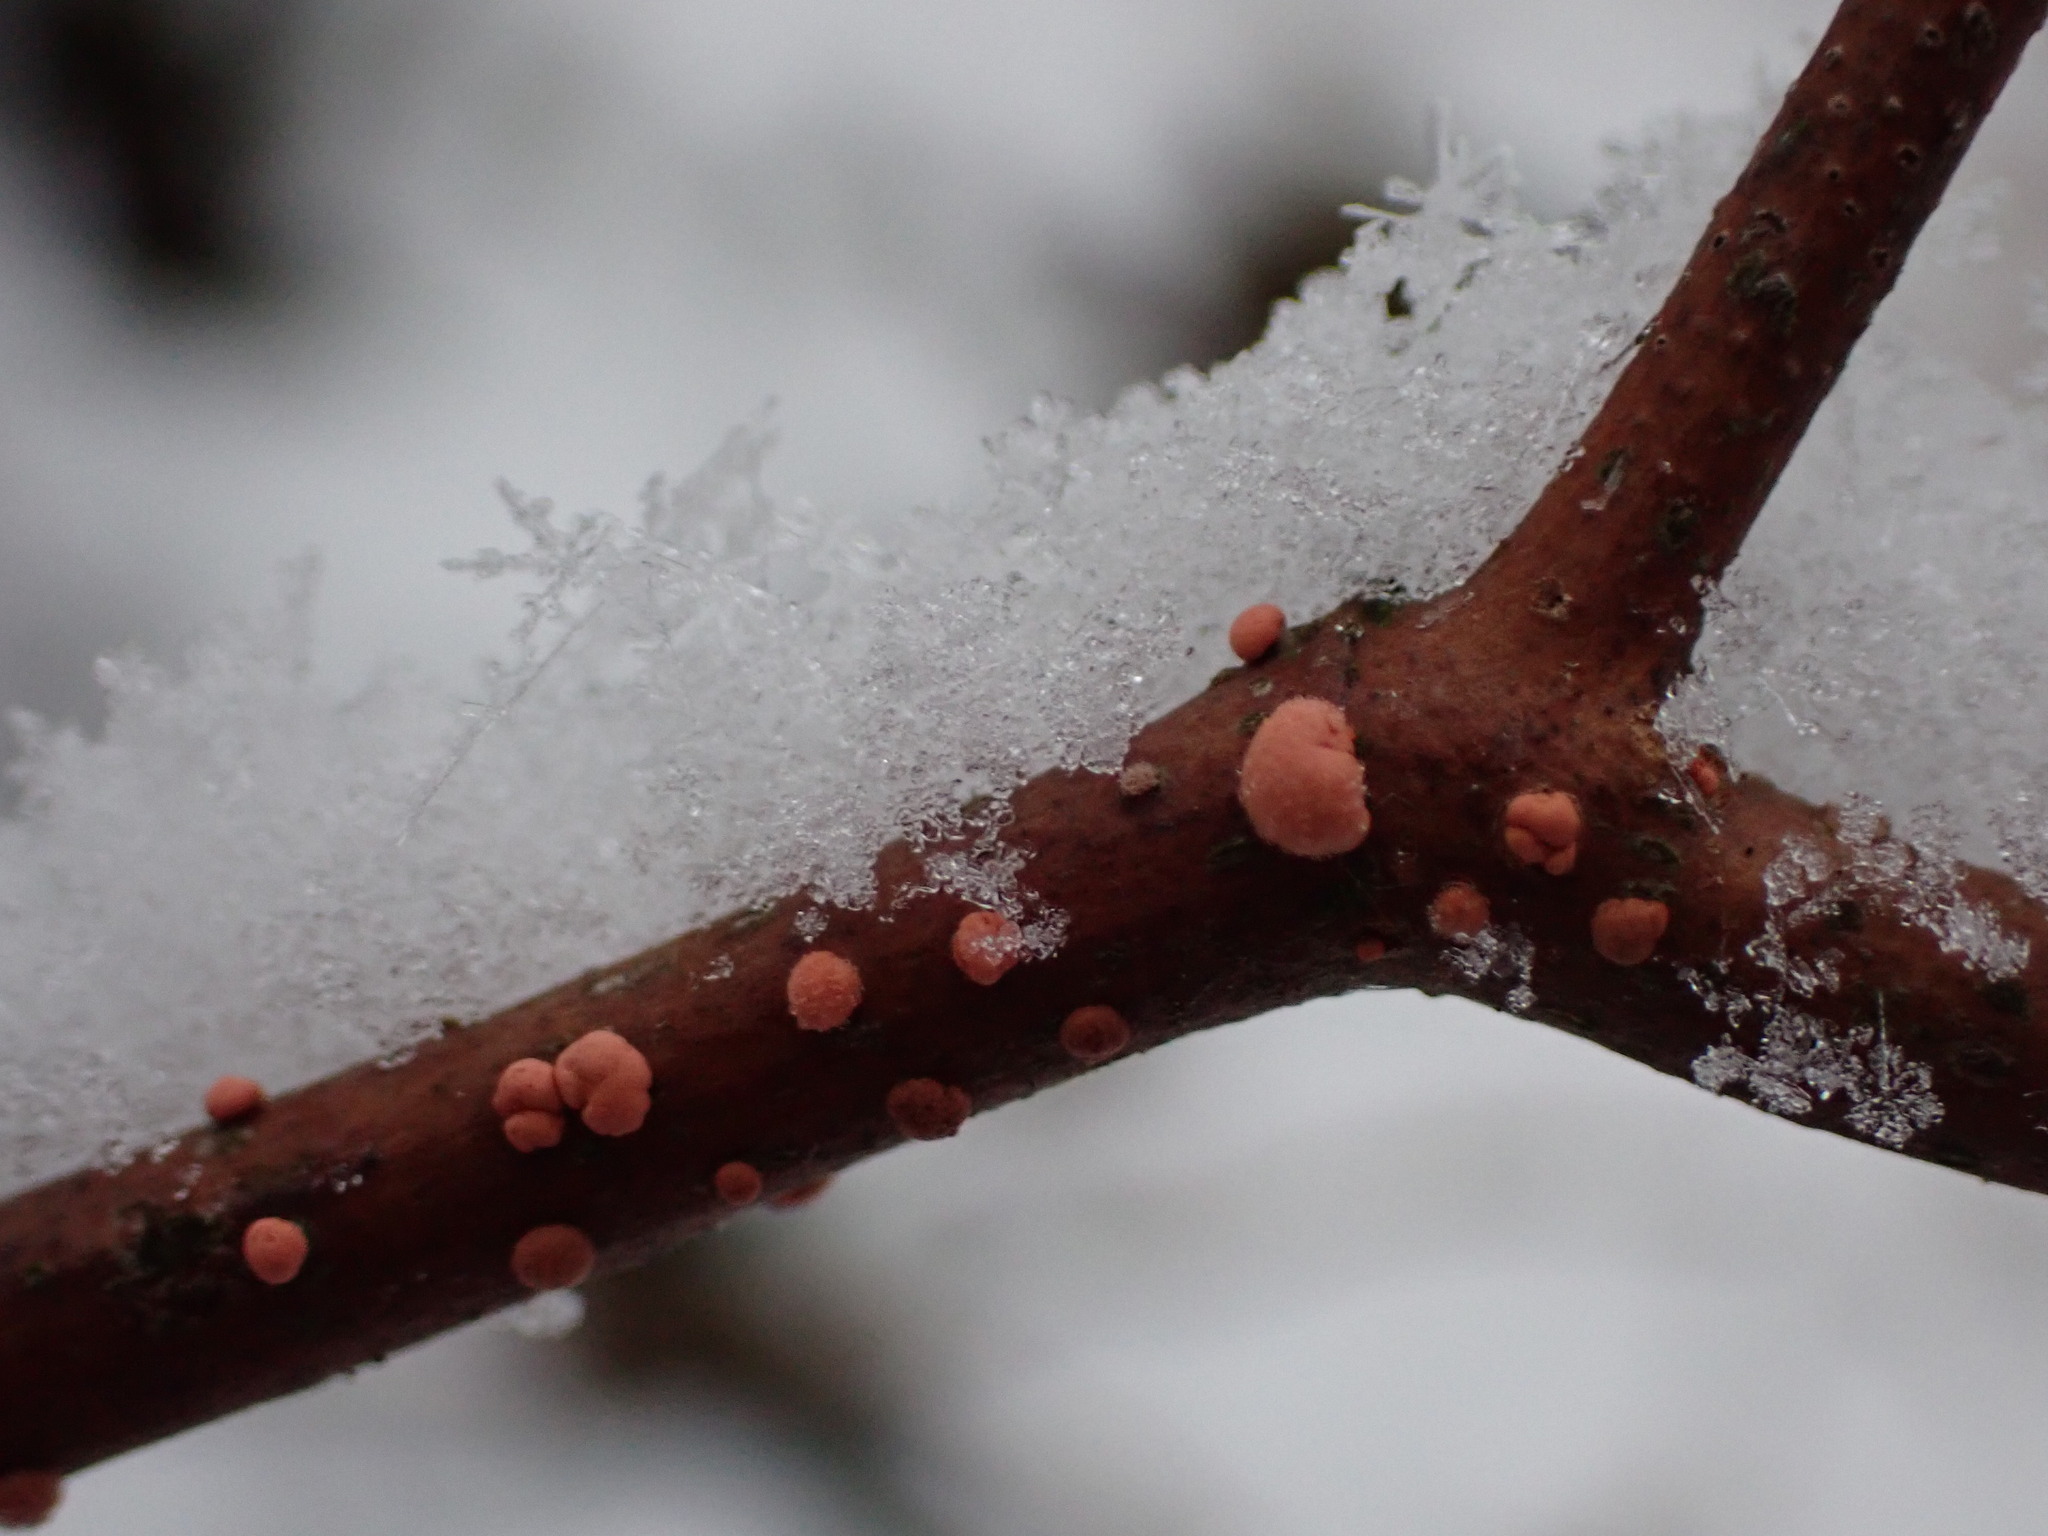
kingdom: Fungi
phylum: Ascomycota
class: Sordariomycetes
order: Hypocreales
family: Nectriaceae
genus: Nectria
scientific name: Nectria cinnabarina
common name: Coral spot
